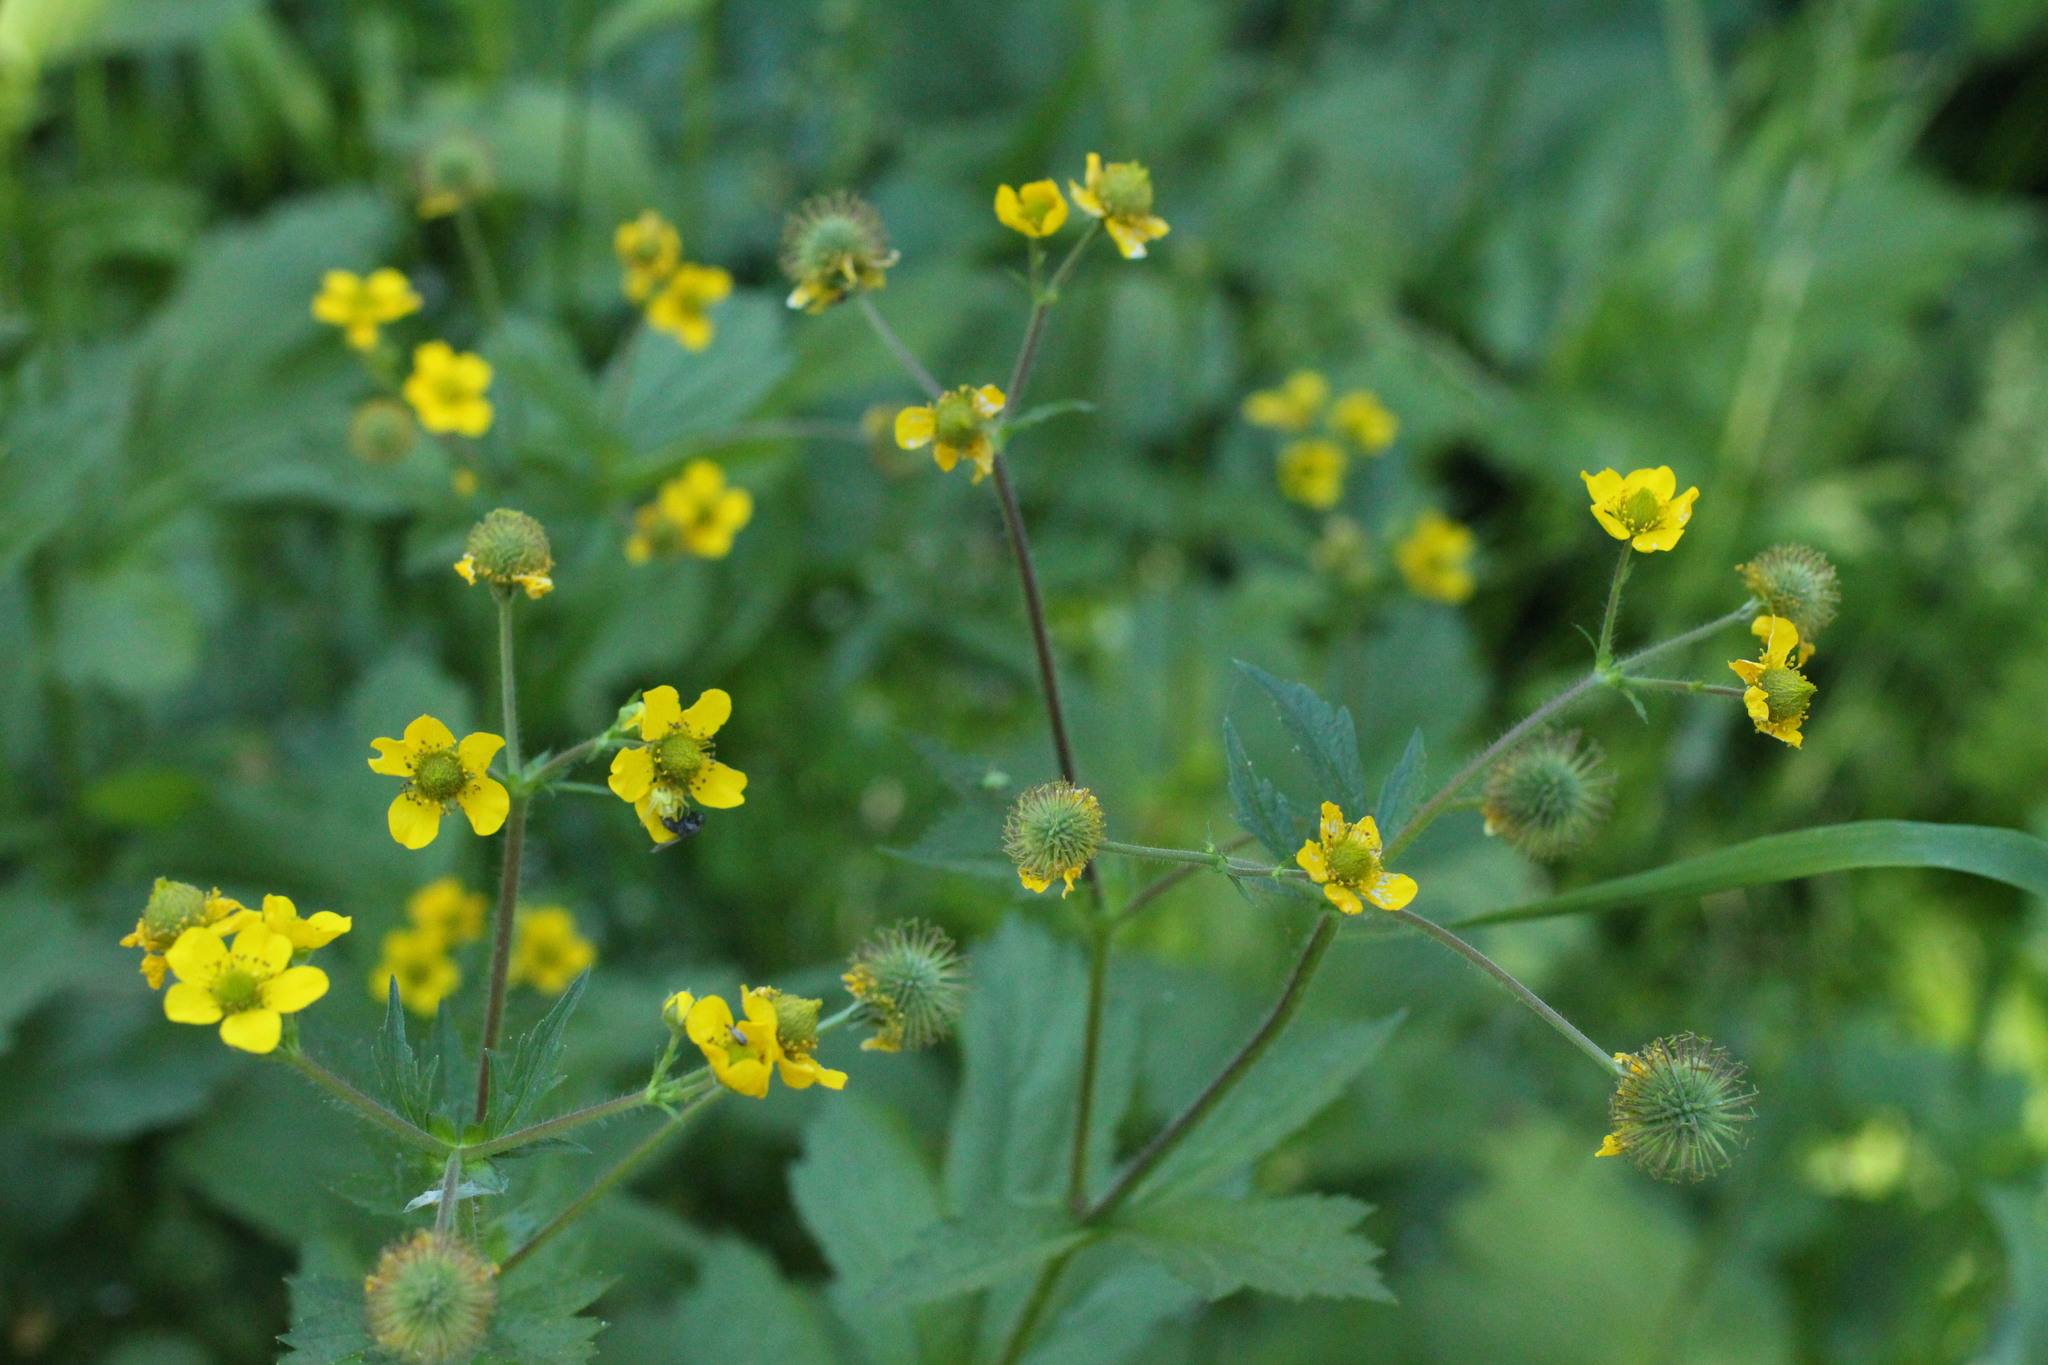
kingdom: Plantae
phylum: Tracheophyta
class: Magnoliopsida
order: Rosales
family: Rosaceae
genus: Geum
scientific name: Geum macrophyllum
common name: Large-leaved avens
